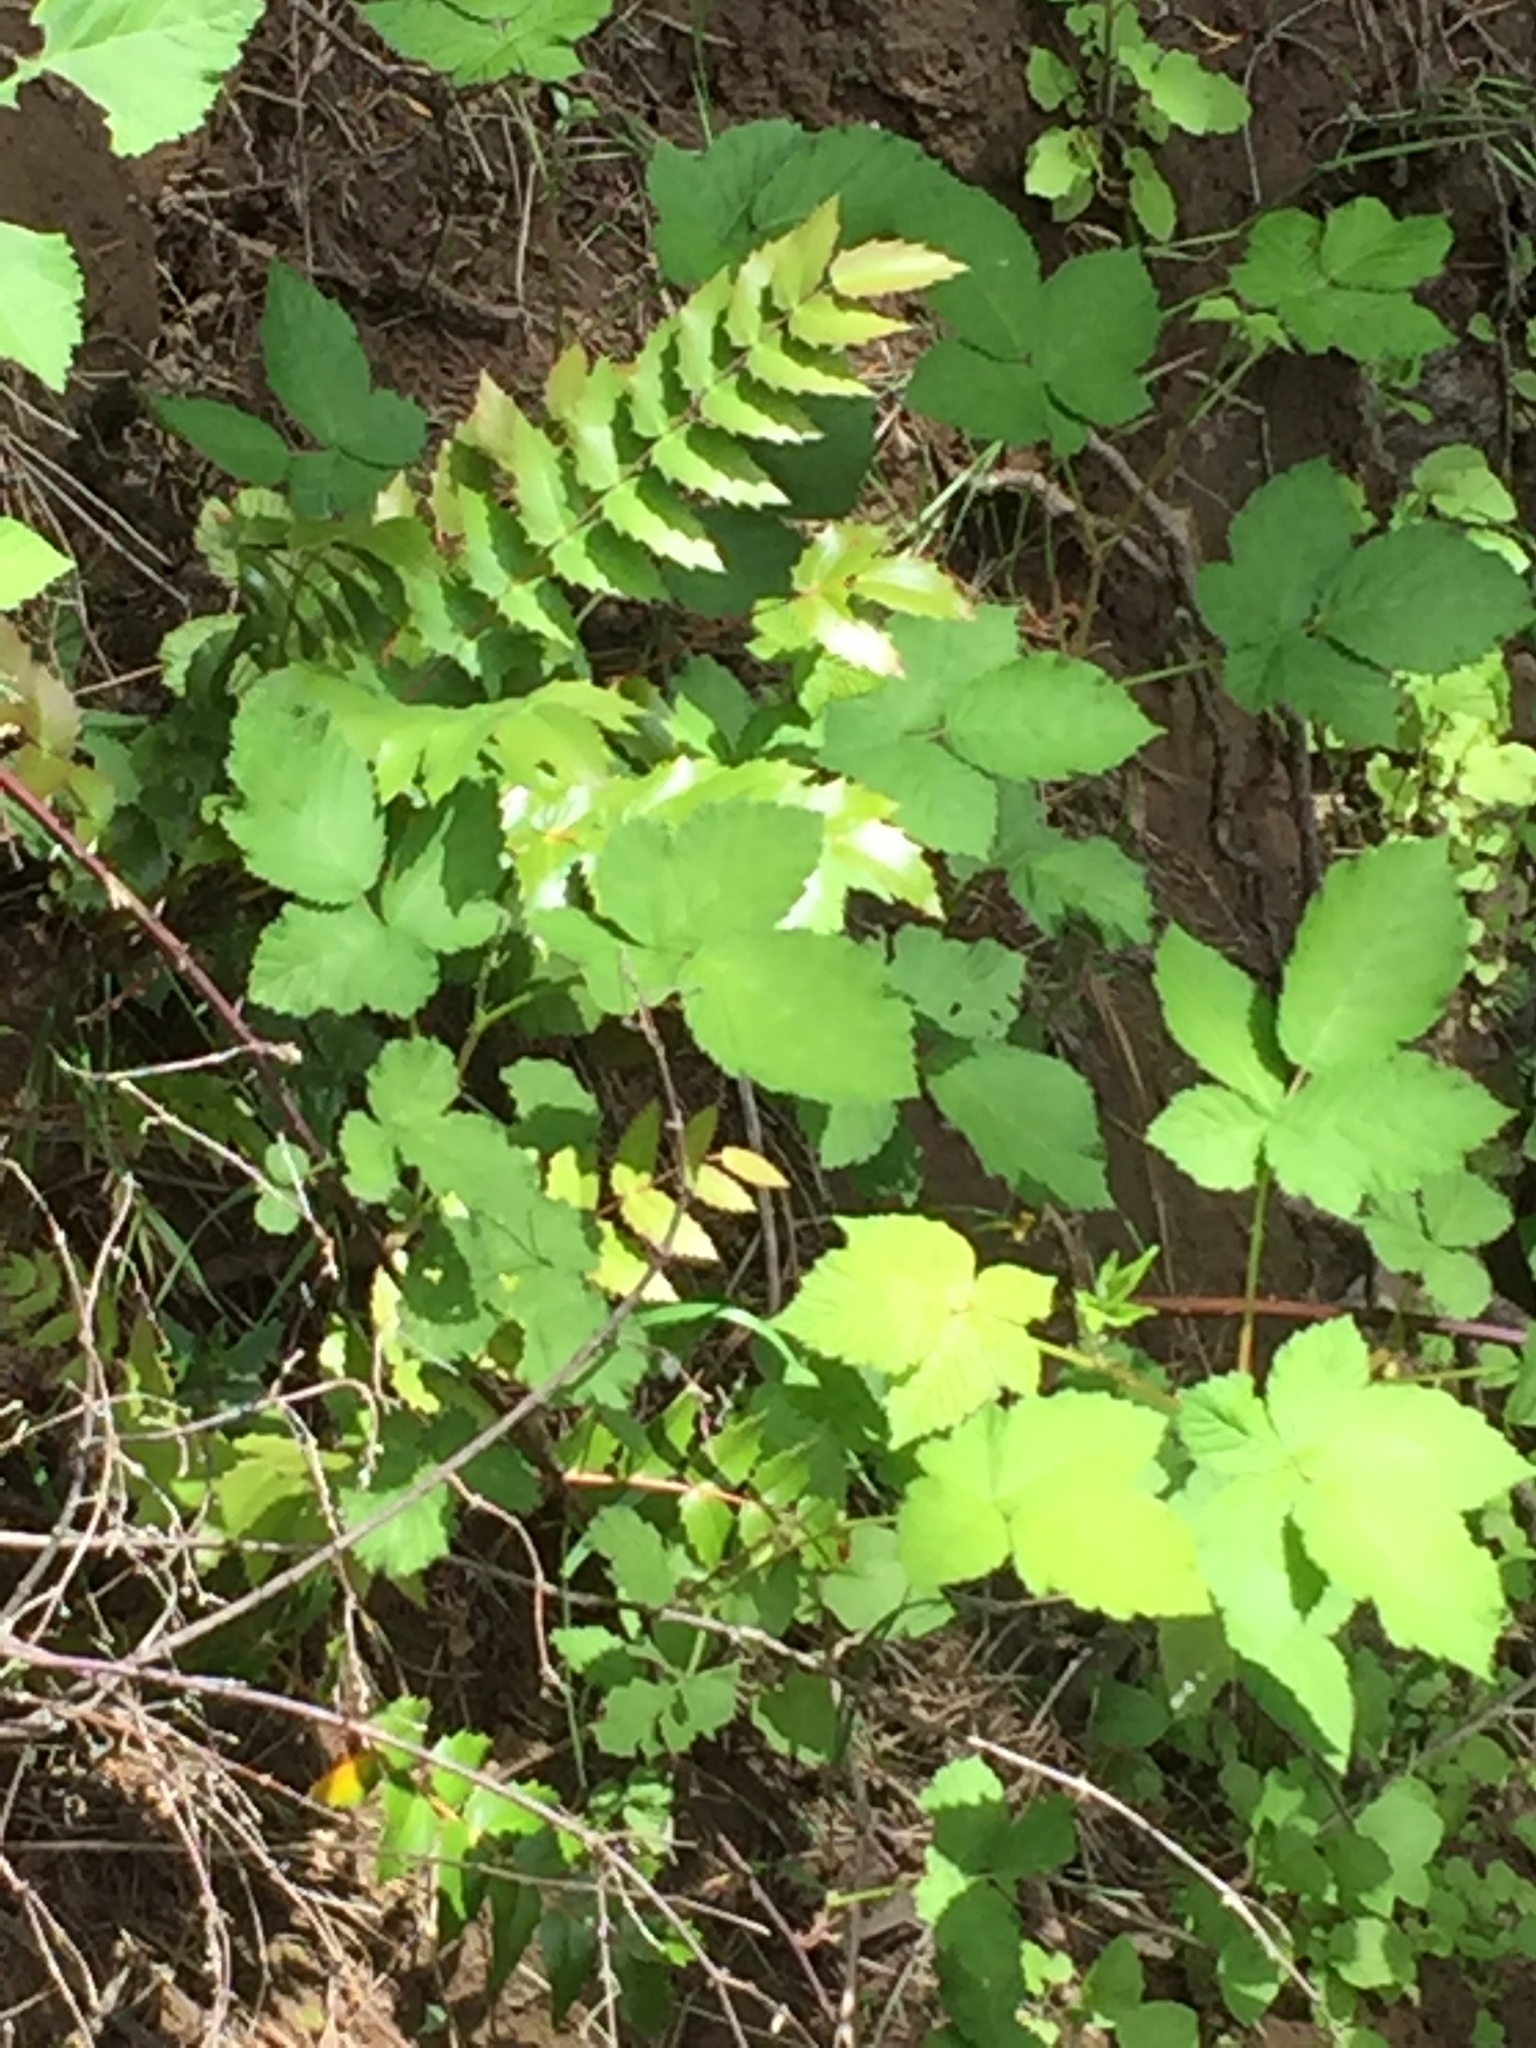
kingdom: Plantae
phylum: Tracheophyta
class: Magnoliopsida
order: Ranunculales
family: Berberidaceae
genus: Mahonia
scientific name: Mahonia nervosa
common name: Cascade oregon-grape
